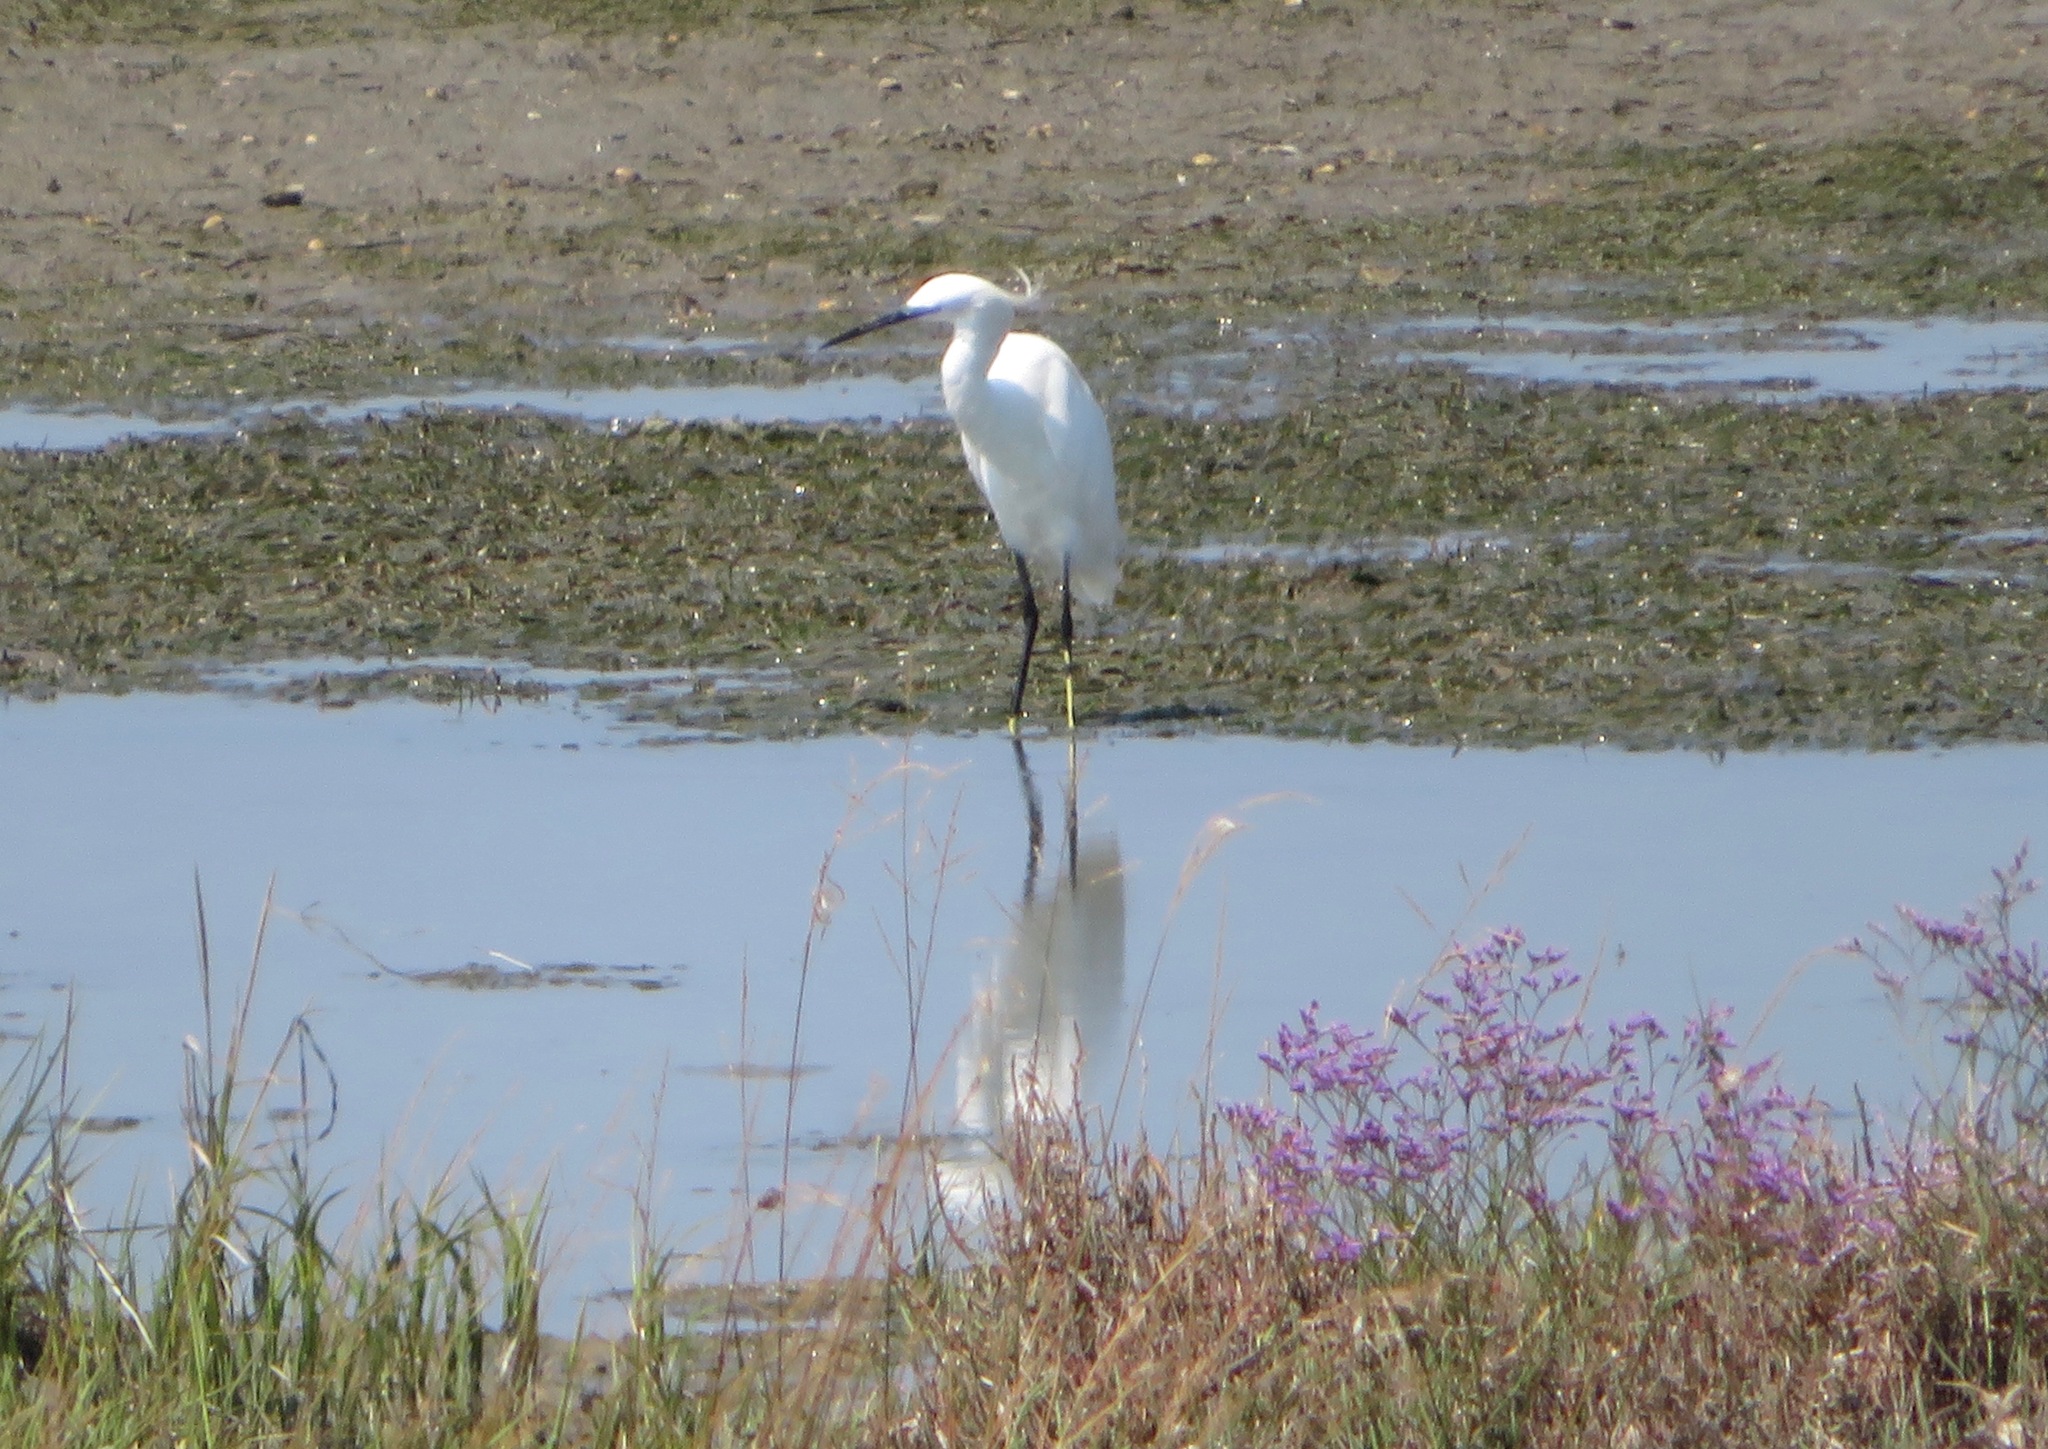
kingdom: Animalia
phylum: Chordata
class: Aves
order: Pelecaniformes
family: Ardeidae
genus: Egretta
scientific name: Egretta garzetta
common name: Little egret
